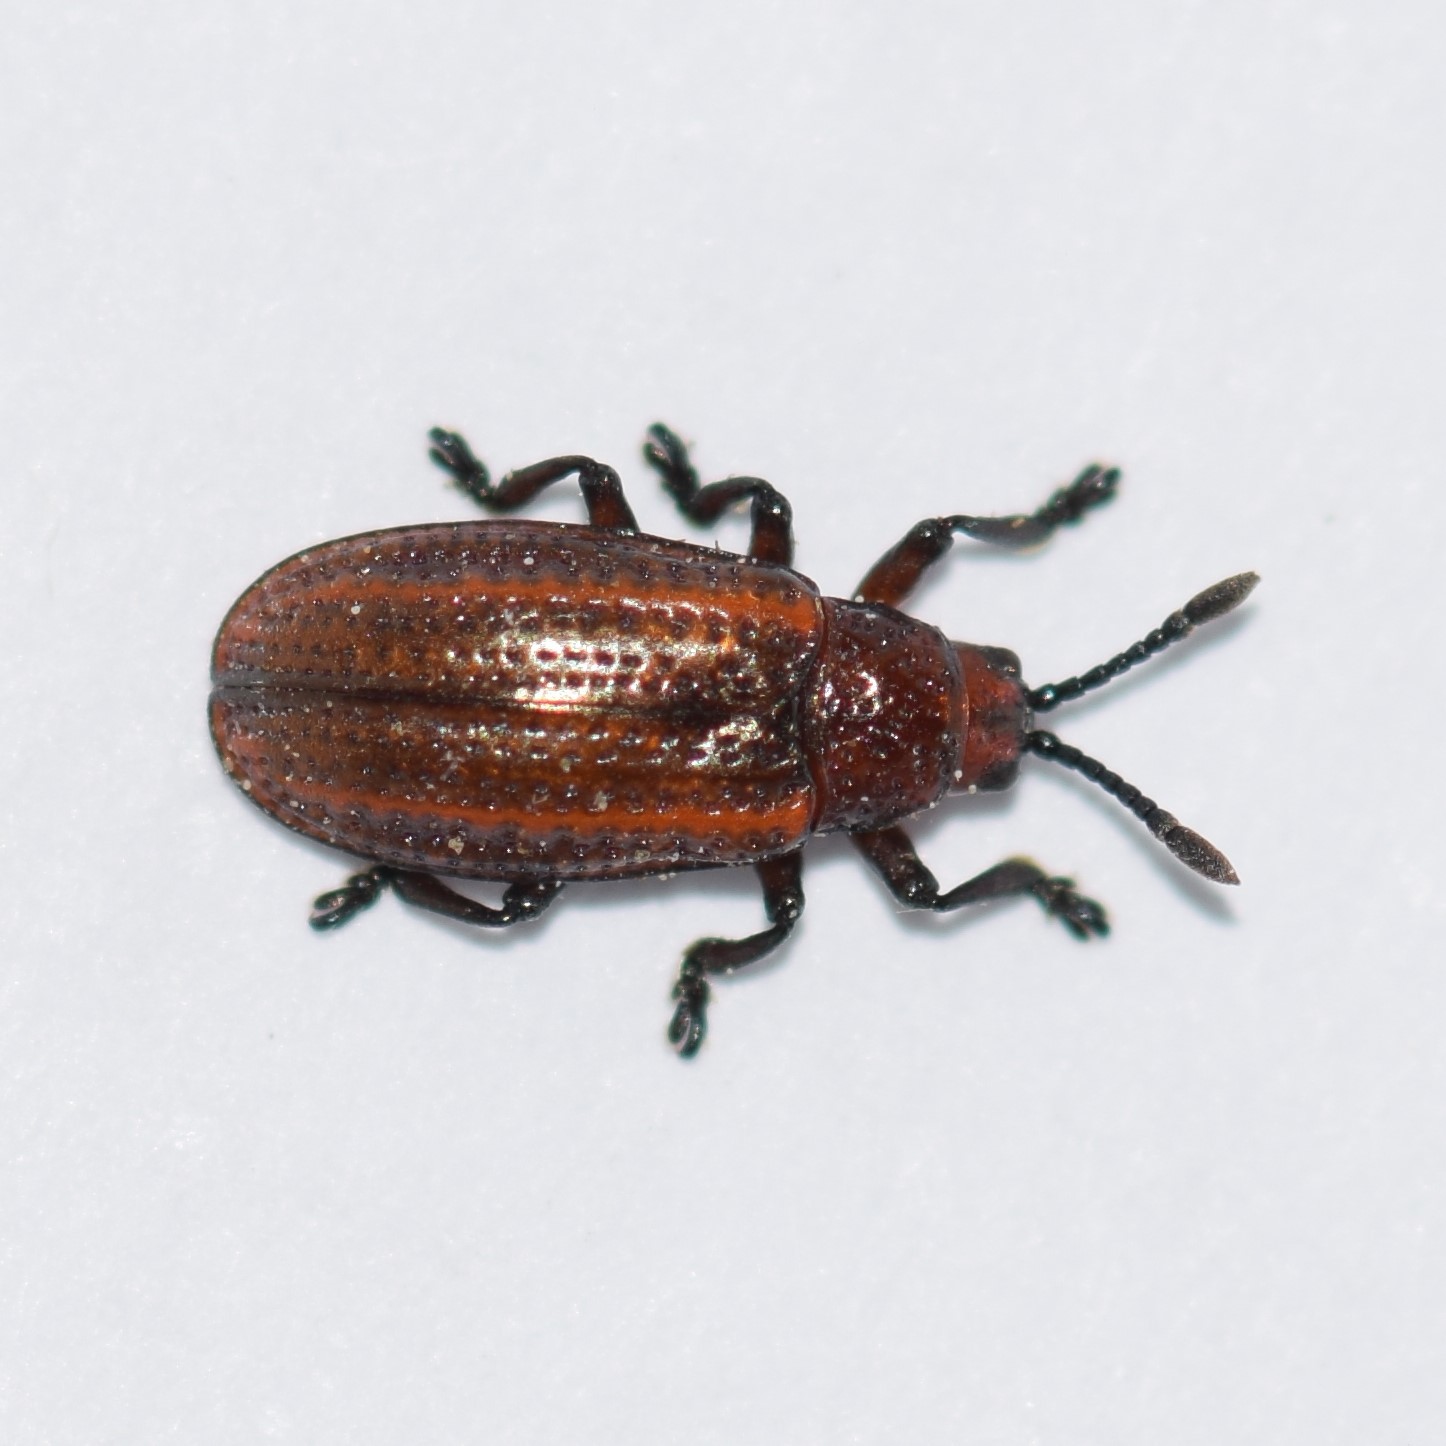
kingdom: Animalia
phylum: Arthropoda
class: Insecta
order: Coleoptera
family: Chrysomelidae
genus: Microrhopala
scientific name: Microrhopala vittata
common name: Goldenrod leaf miner beetle
